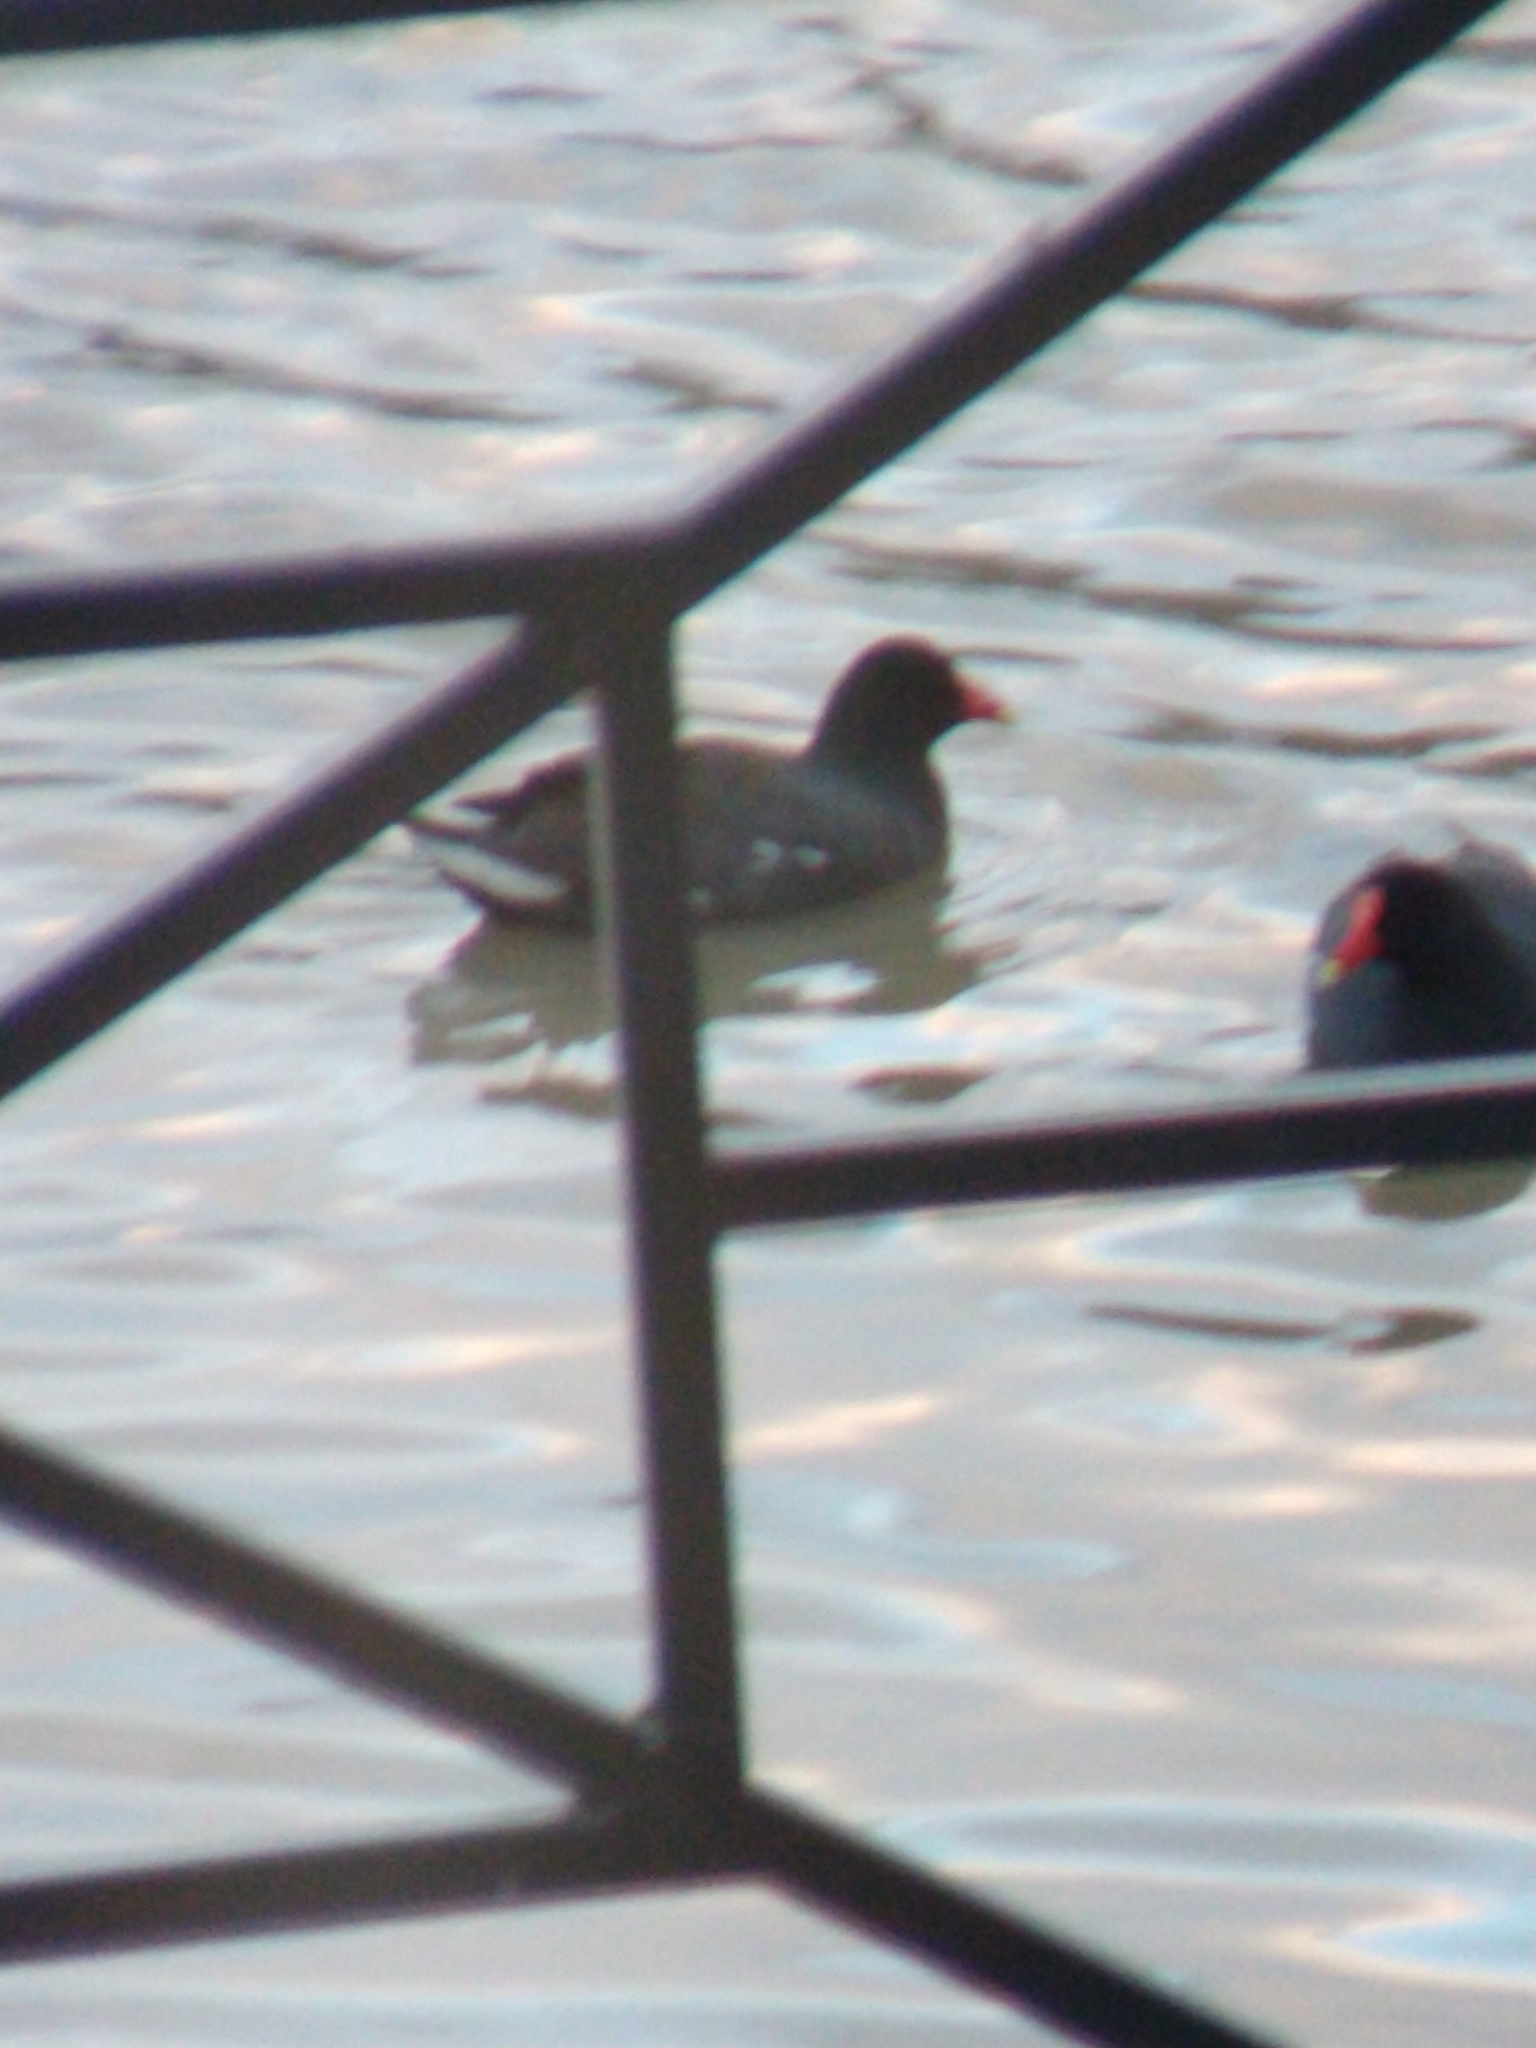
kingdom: Animalia
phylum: Chordata
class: Aves
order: Gruiformes
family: Rallidae
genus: Gallinula
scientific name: Gallinula chloropus
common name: Common moorhen
